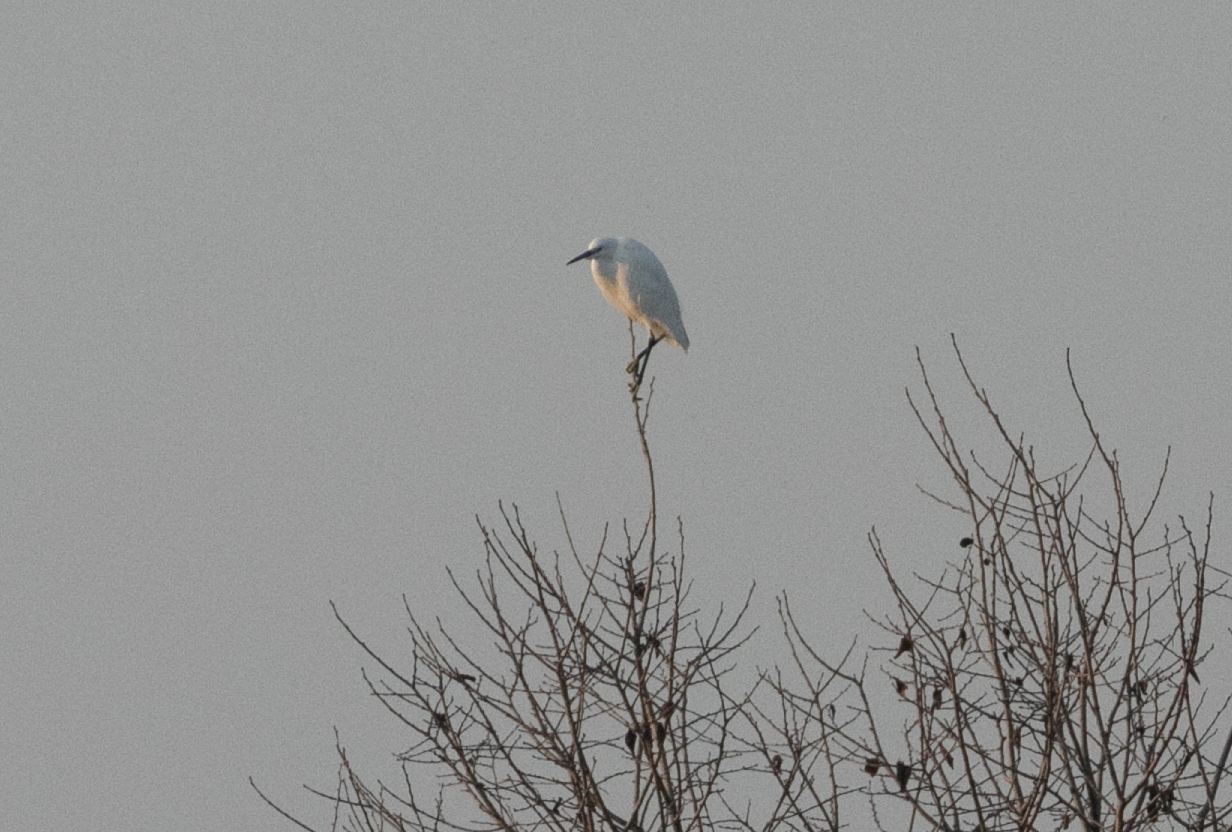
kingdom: Animalia
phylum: Chordata
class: Aves
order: Pelecaniformes
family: Ardeidae
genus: Egretta
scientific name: Egretta garzetta
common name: Little egret
